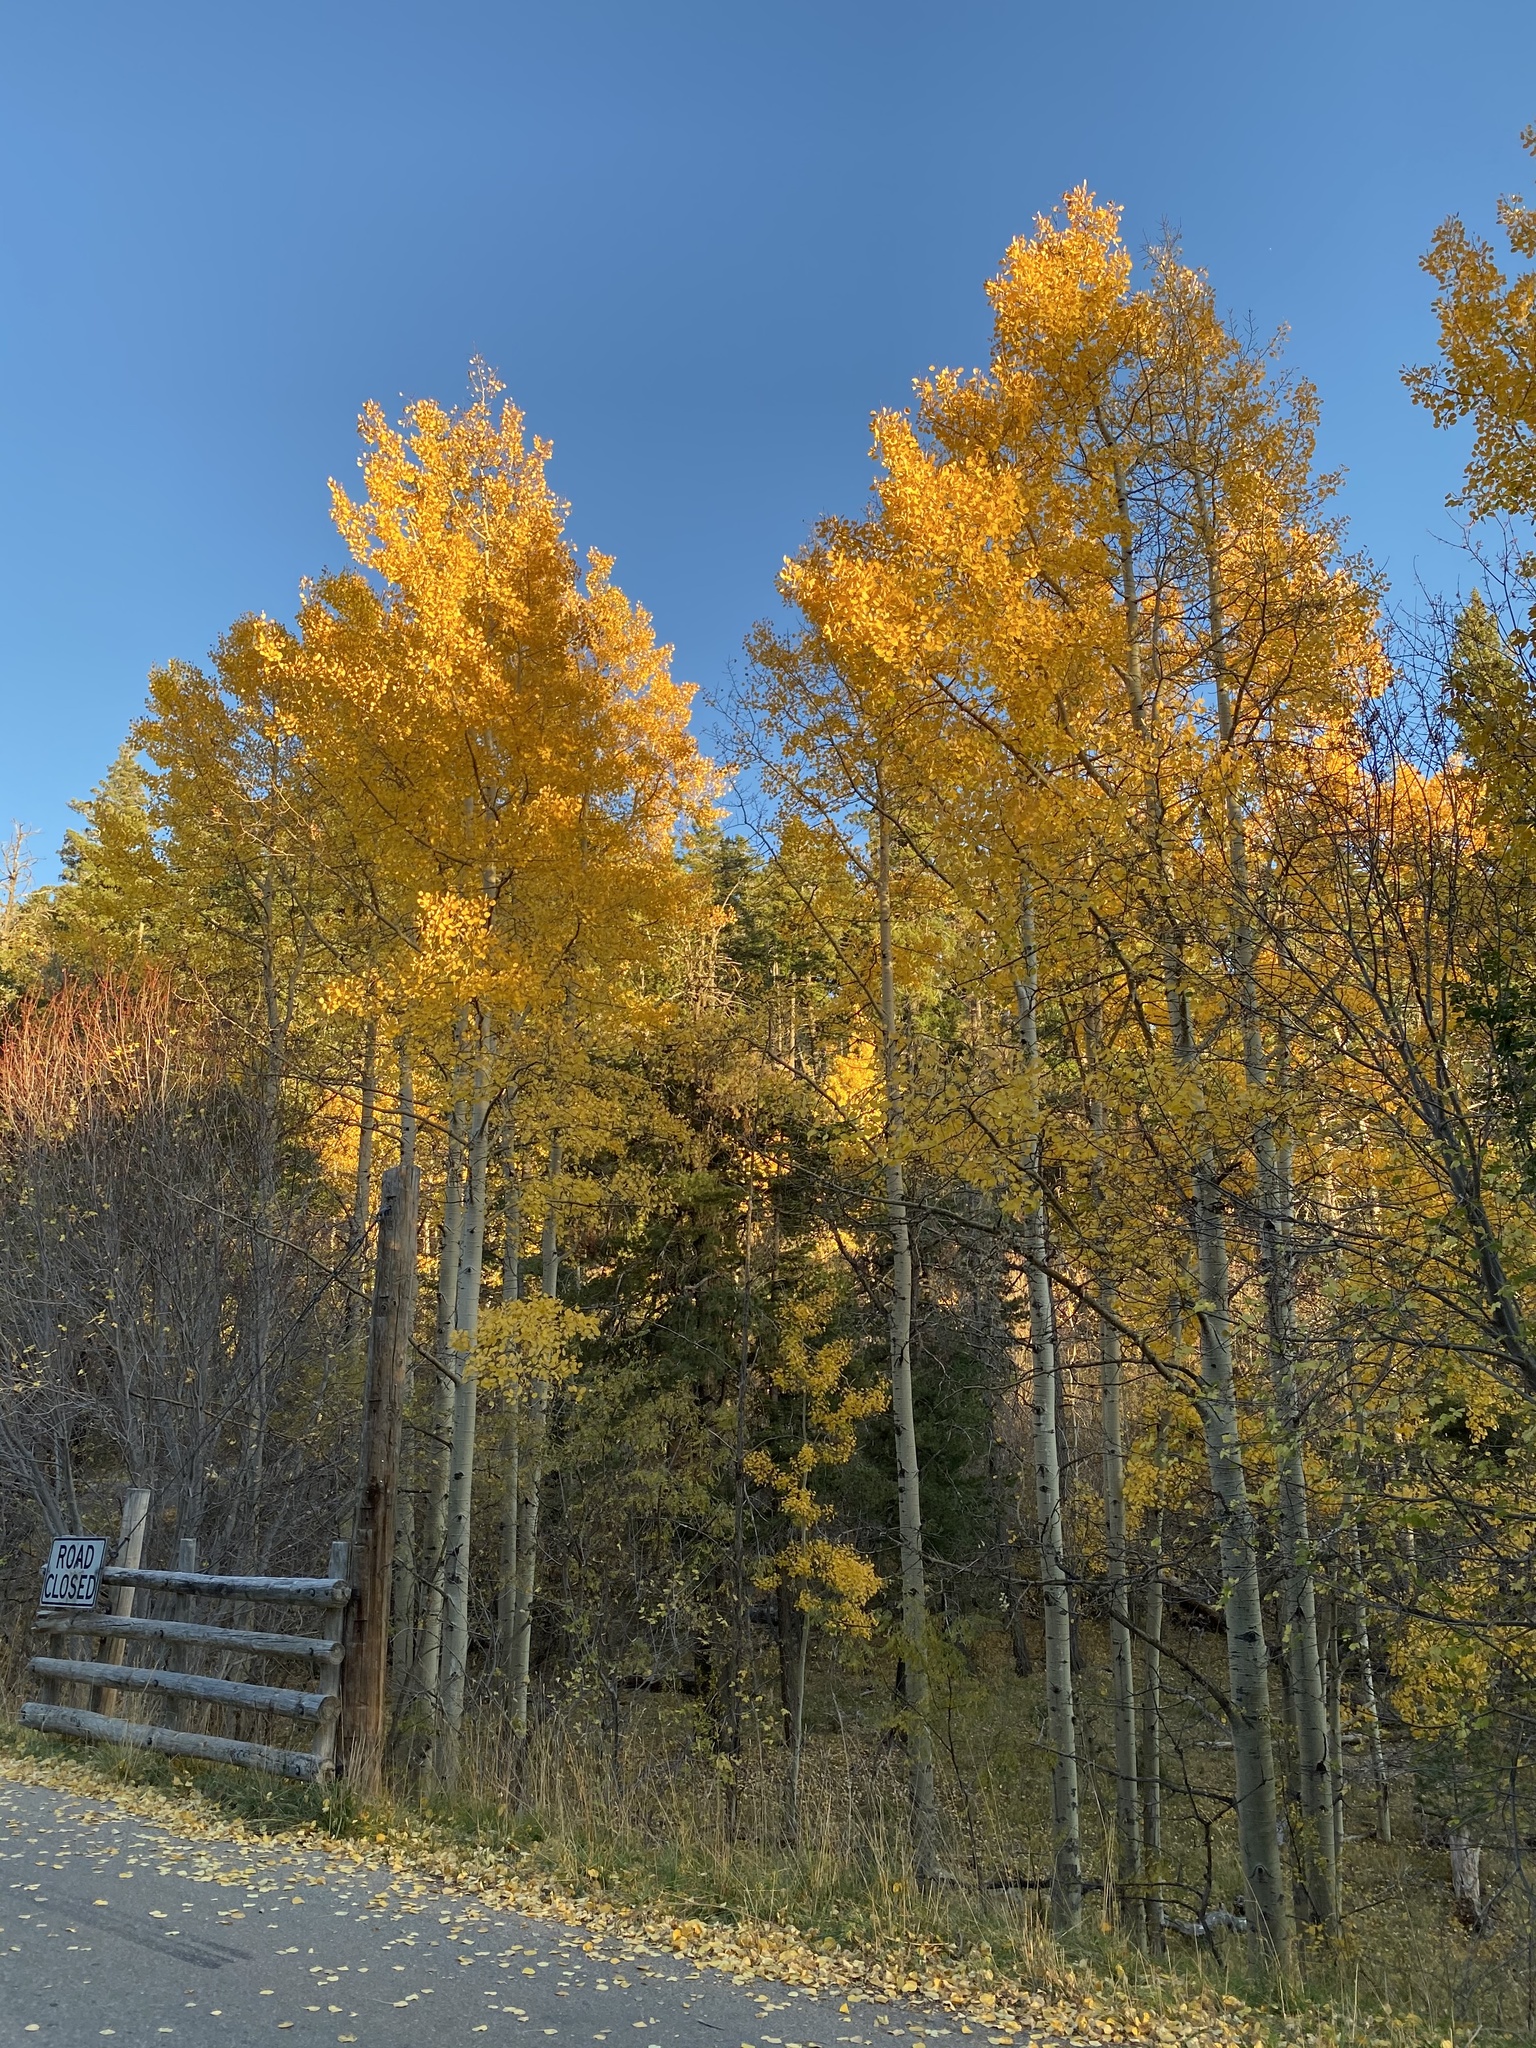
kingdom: Plantae
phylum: Tracheophyta
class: Magnoliopsida
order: Malpighiales
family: Salicaceae
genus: Populus
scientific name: Populus tremuloides
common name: Quaking aspen
